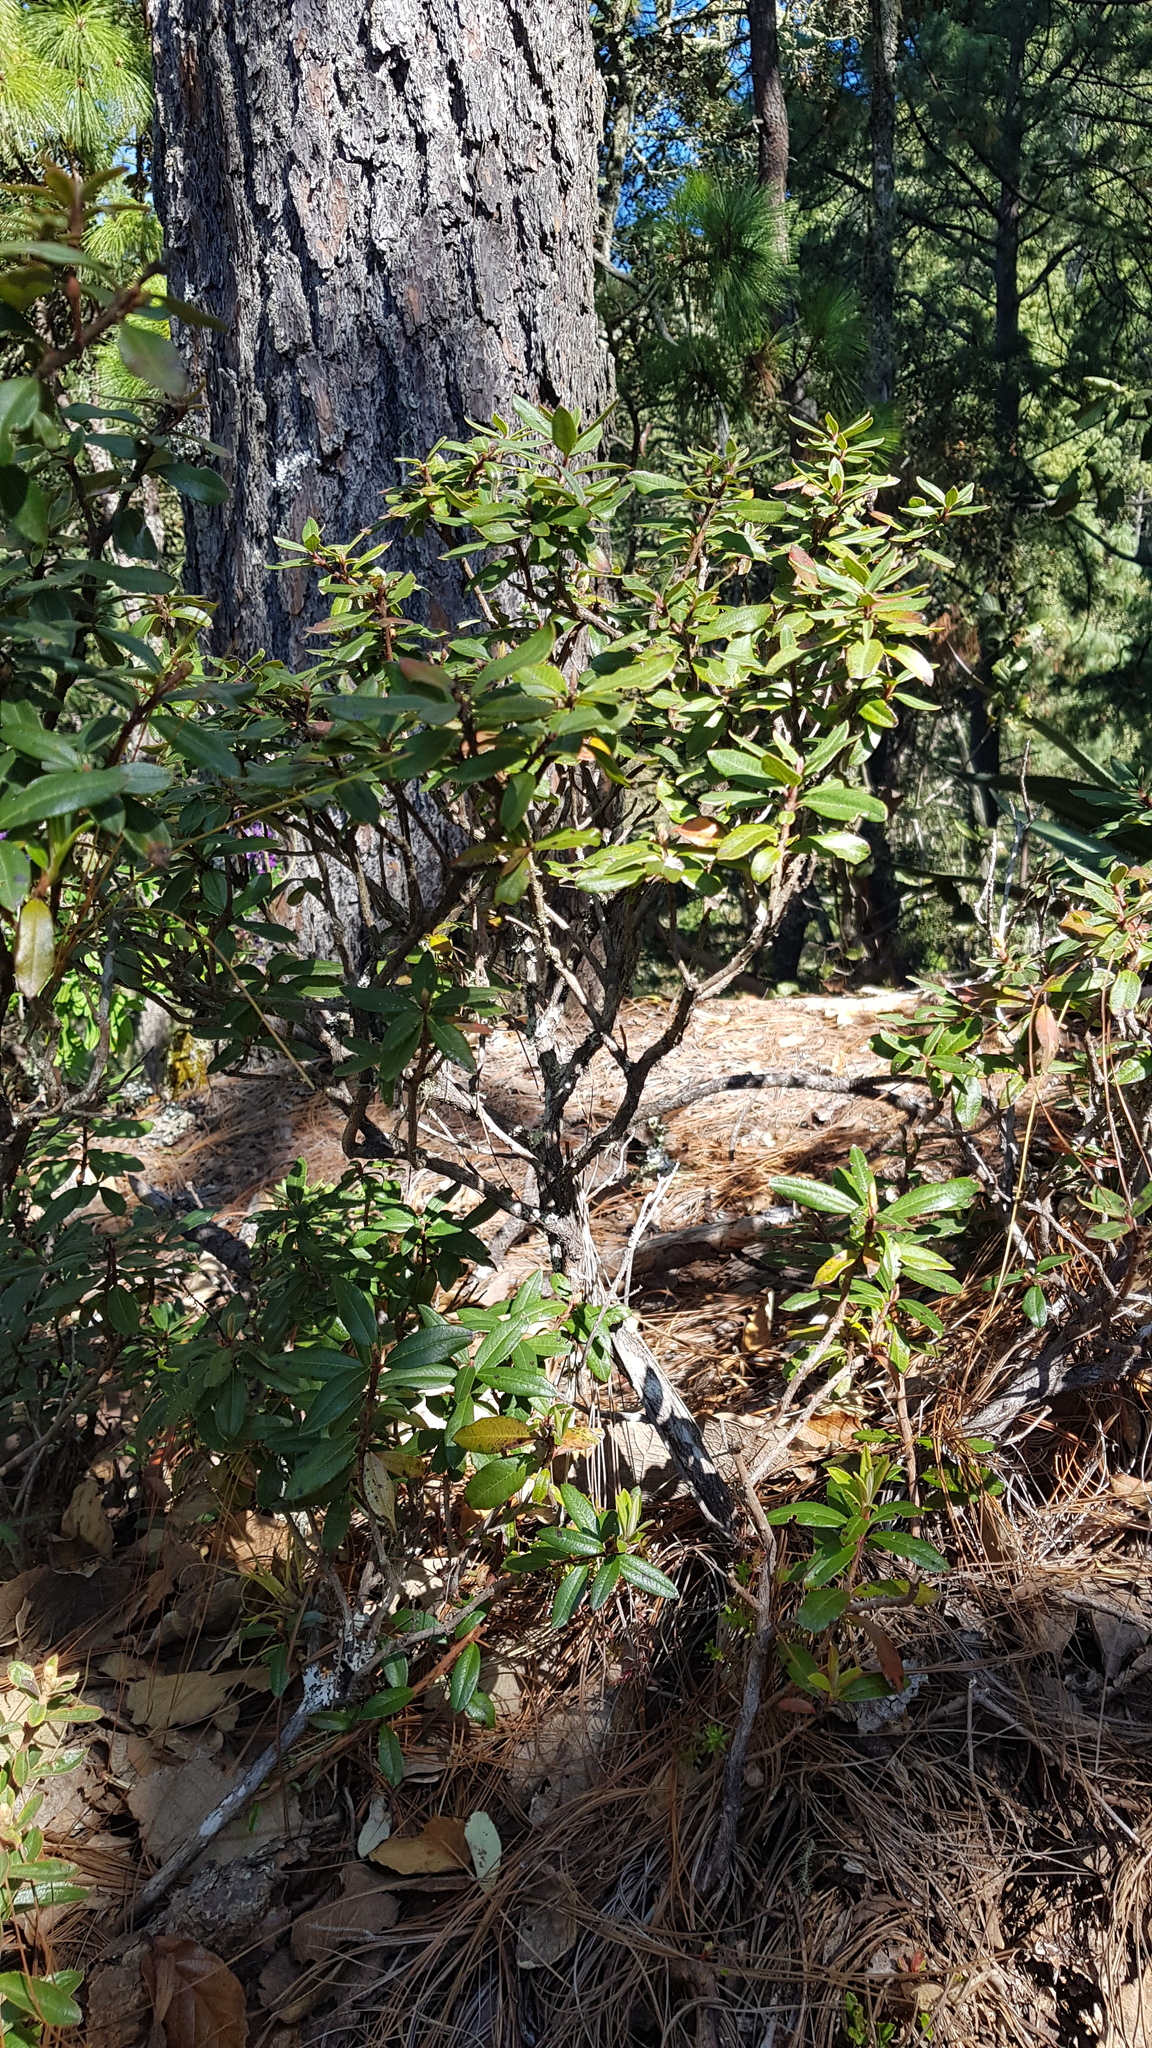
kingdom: Plantae
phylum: Tracheophyta
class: Magnoliopsida
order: Ericales
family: Ericaceae
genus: Comarostaphylis
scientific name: Comarostaphylis discolor
